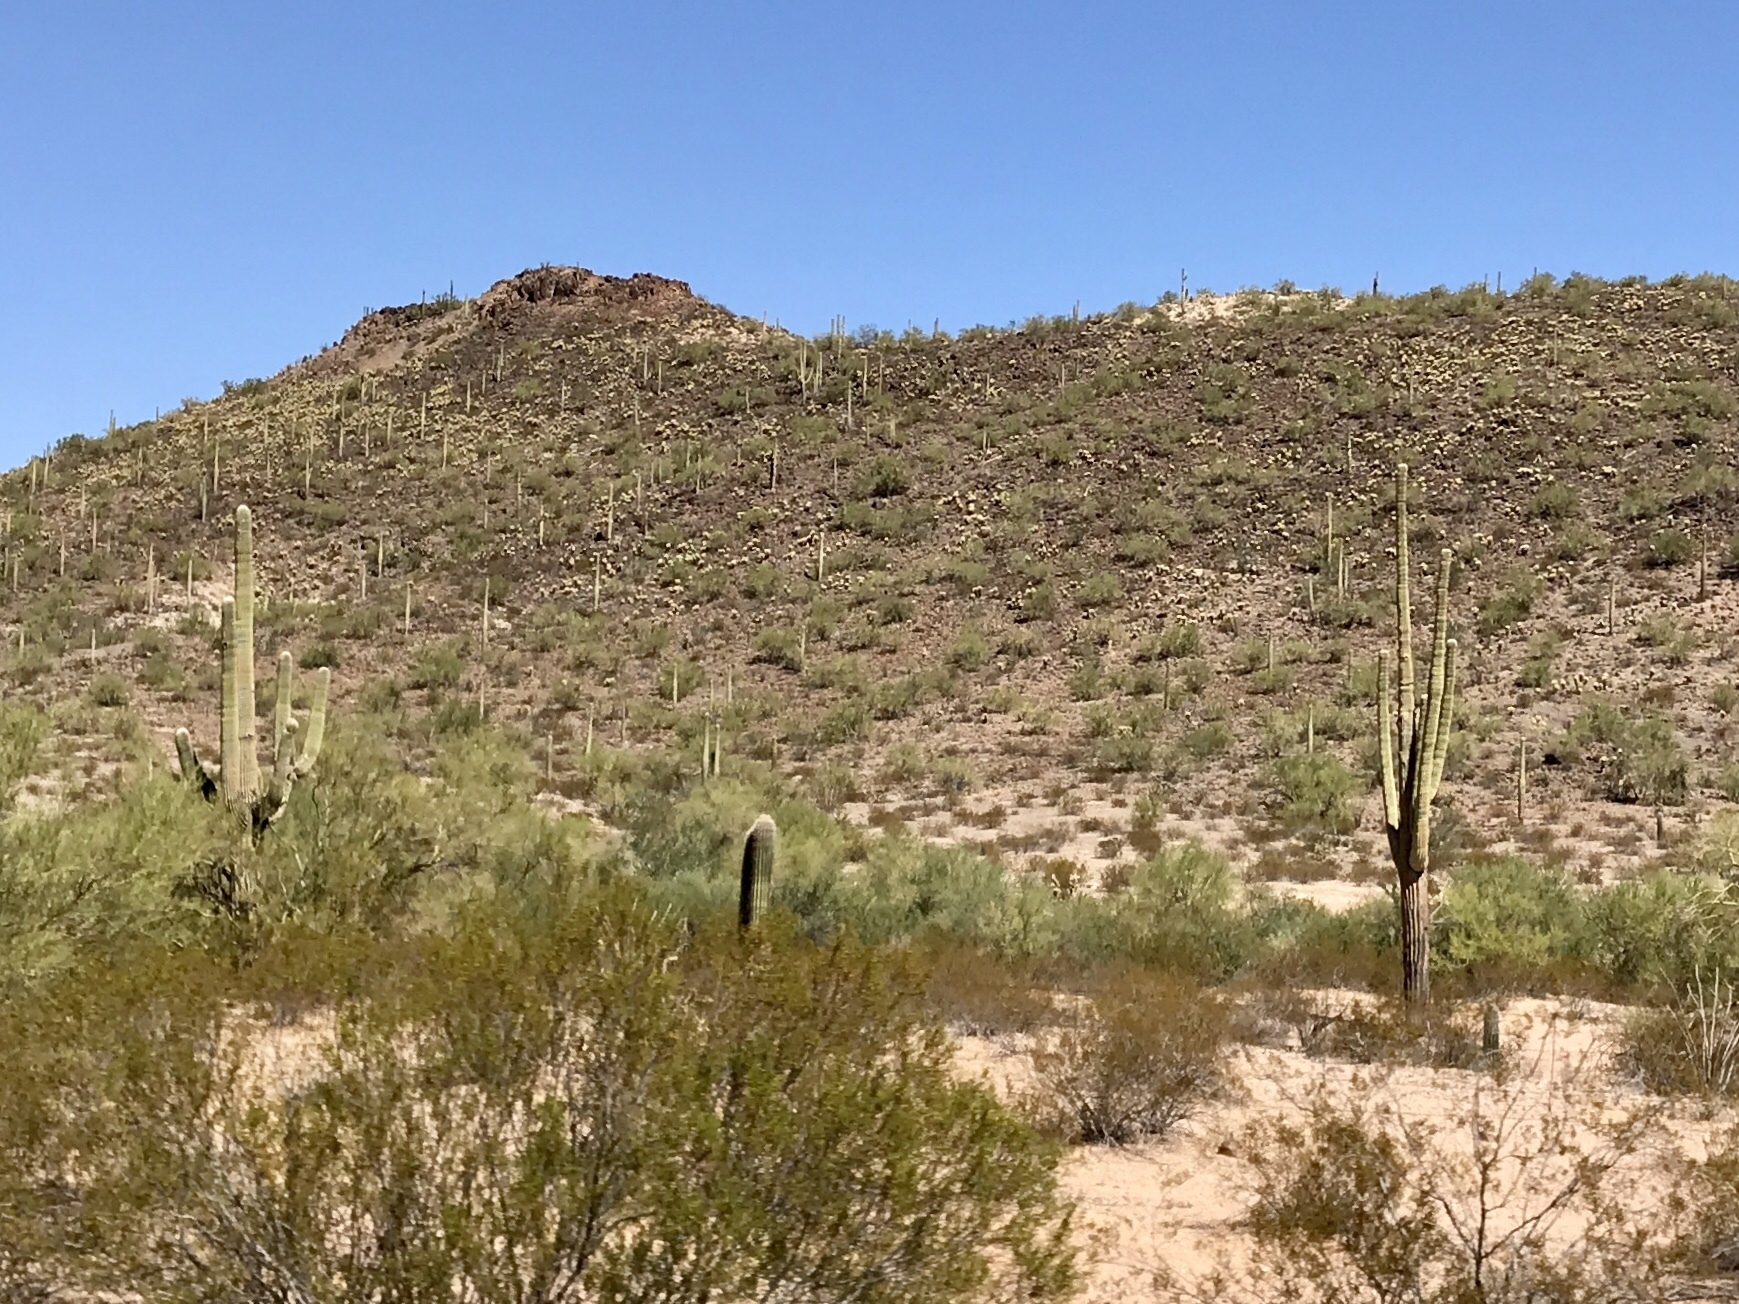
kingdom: Plantae
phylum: Tracheophyta
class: Magnoliopsida
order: Caryophyllales
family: Cactaceae
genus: Carnegiea
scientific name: Carnegiea gigantea
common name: Saguaro
